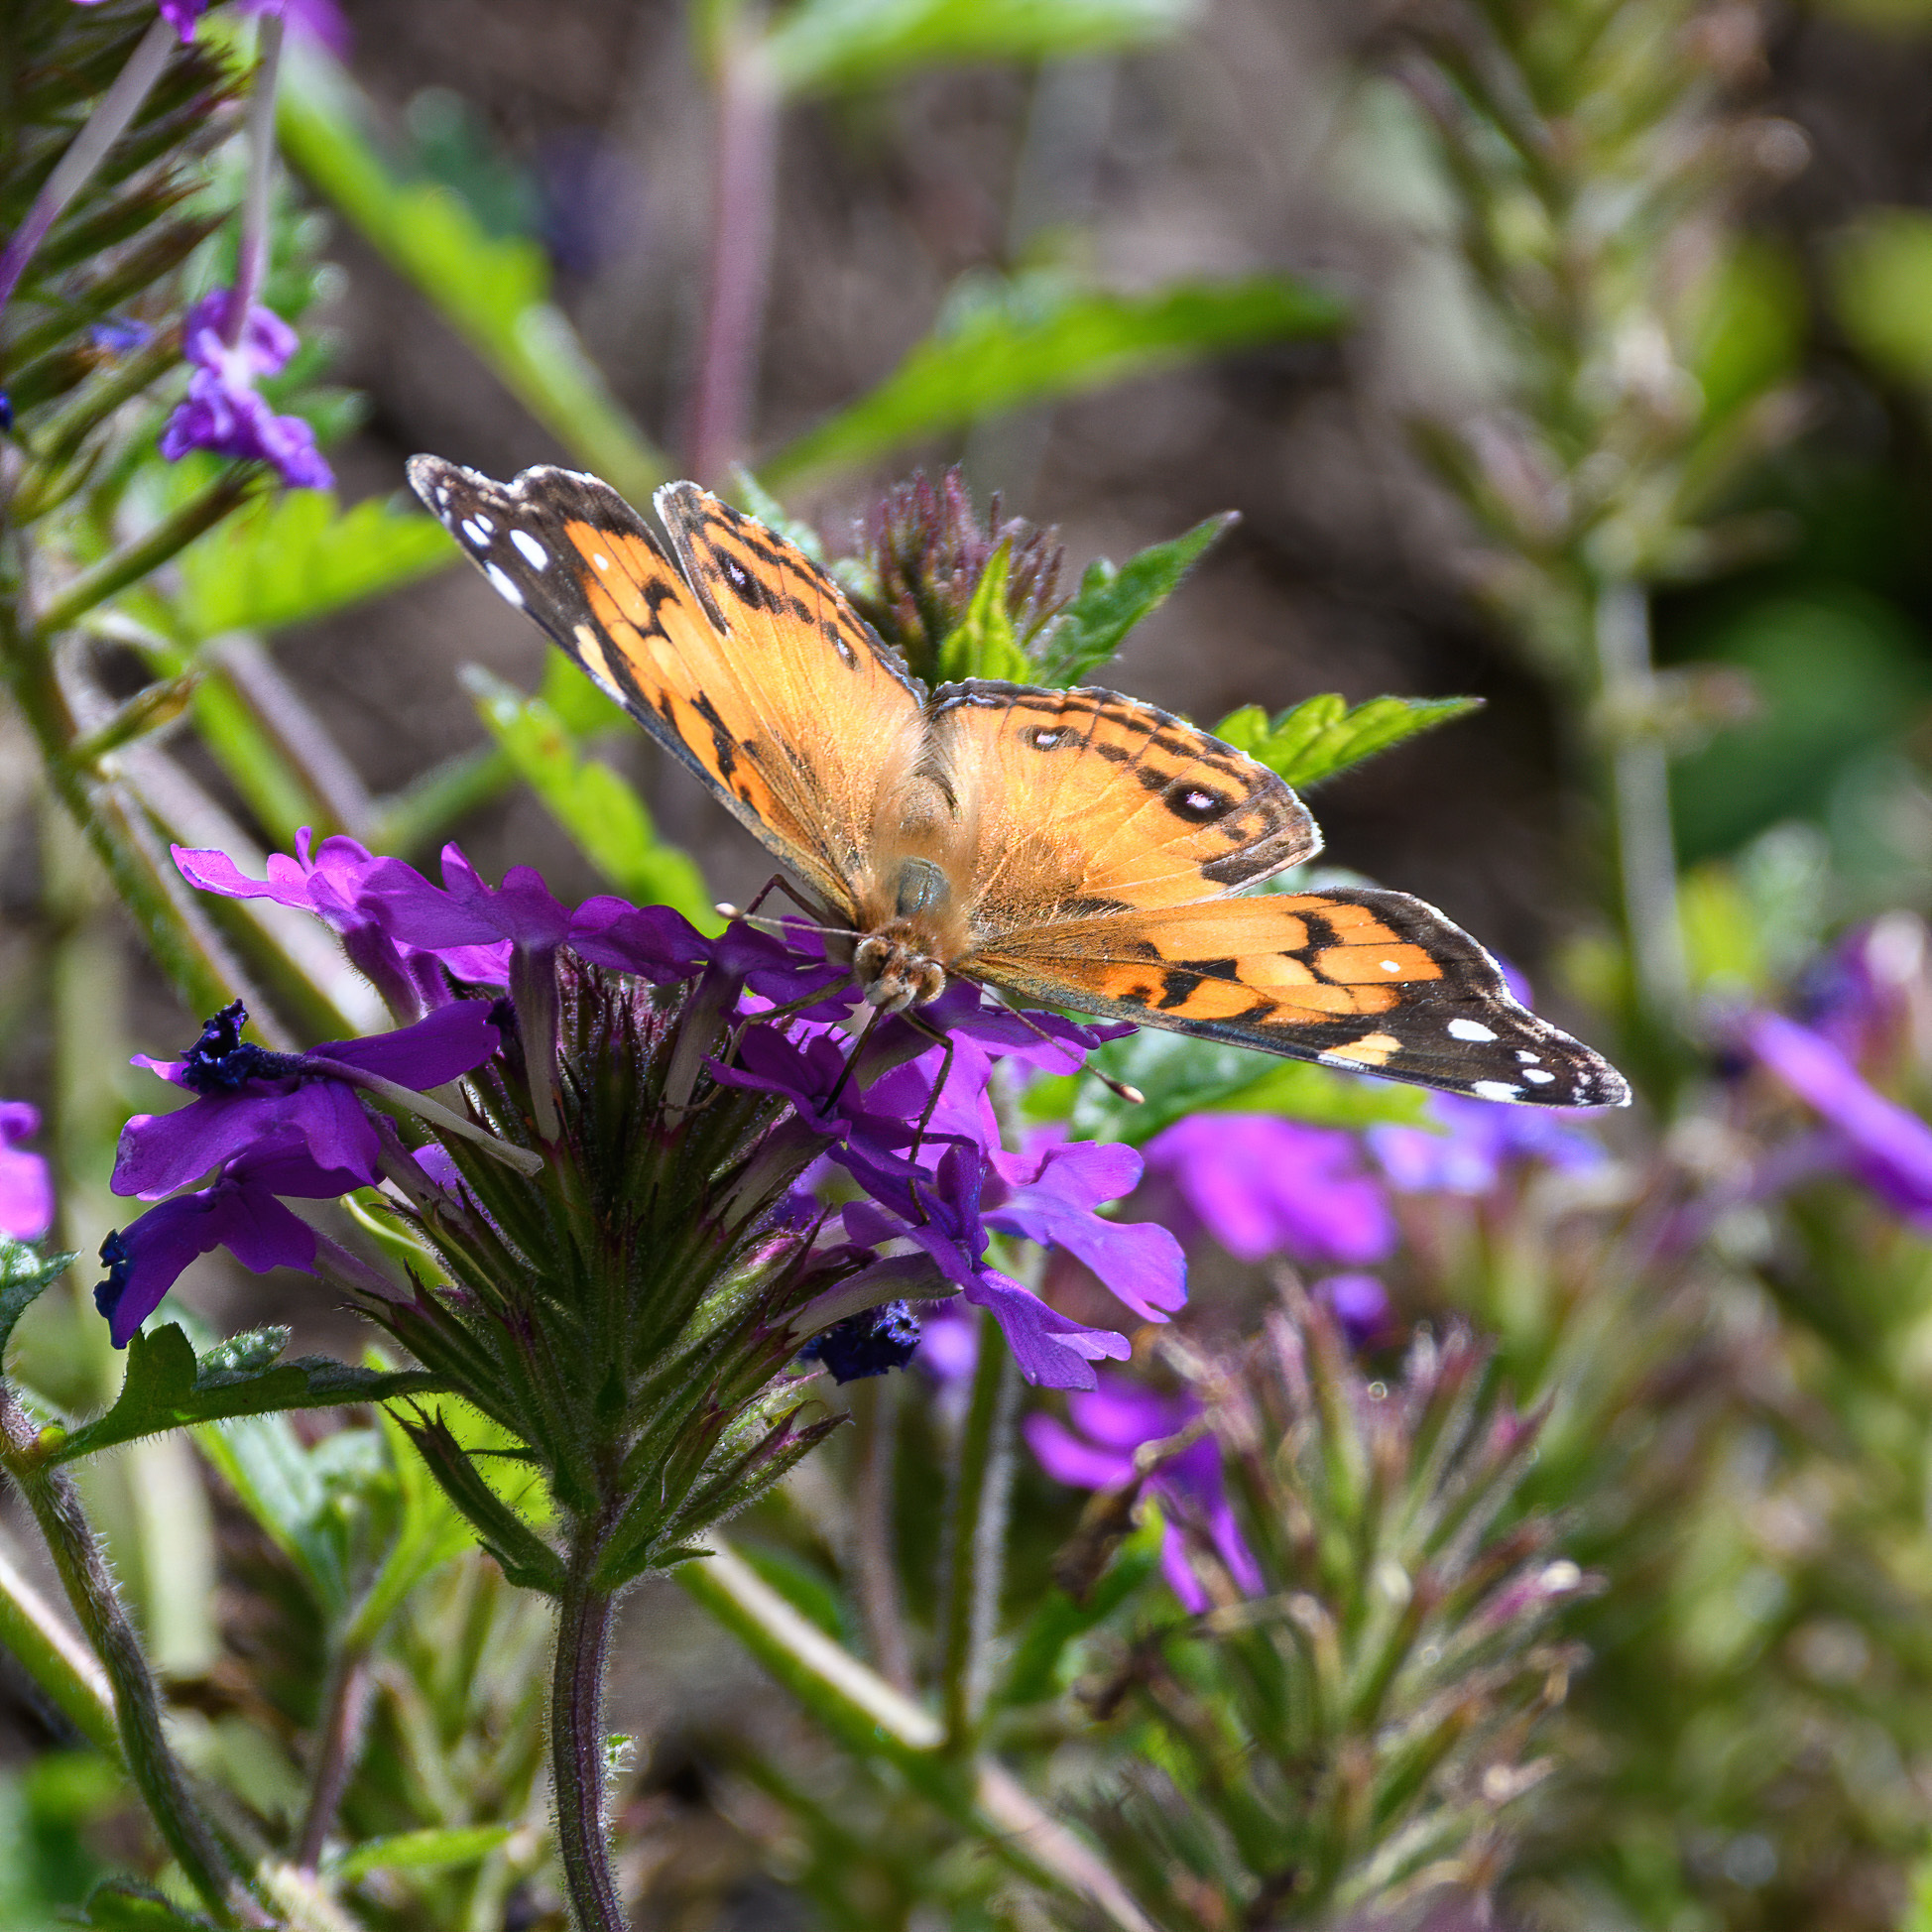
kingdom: Animalia
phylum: Arthropoda
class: Insecta
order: Lepidoptera
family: Nymphalidae
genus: Vanessa
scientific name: Vanessa virginiensis
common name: American lady
